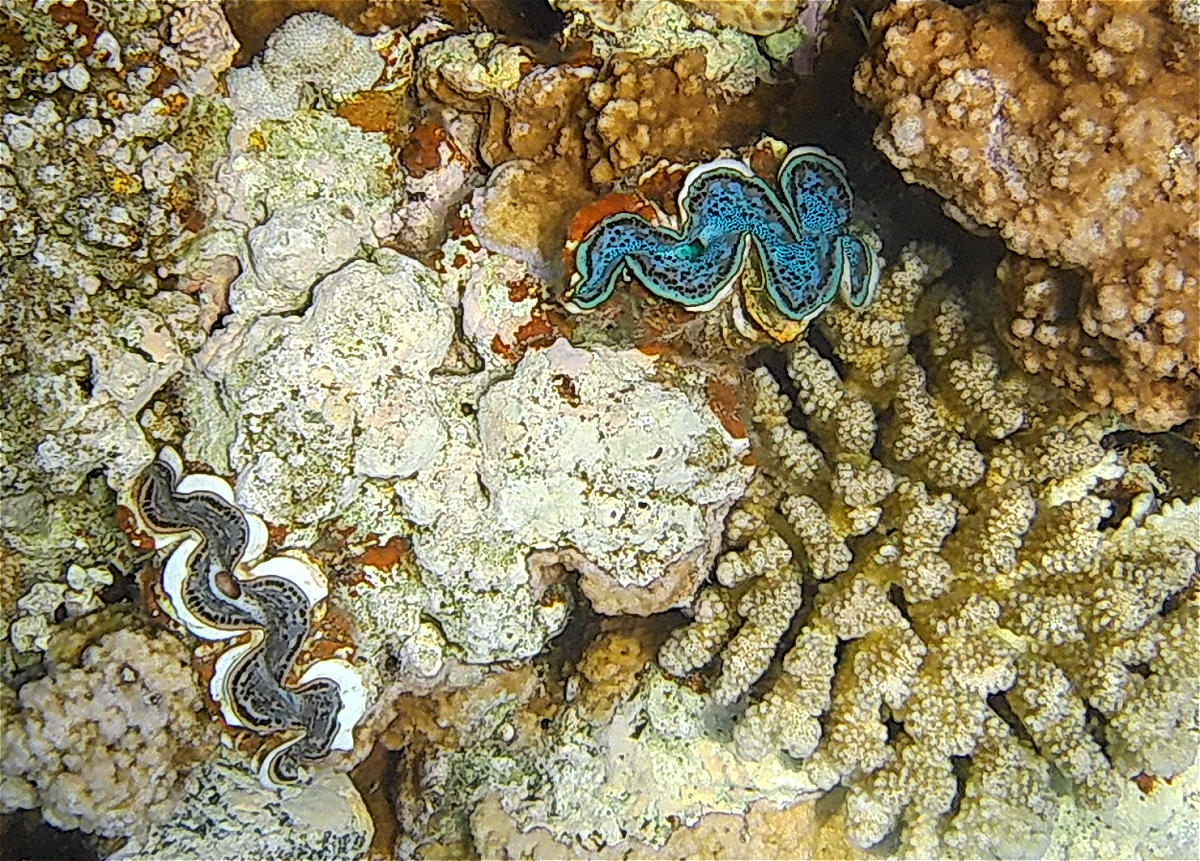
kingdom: Animalia
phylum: Mollusca
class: Bivalvia
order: Cardiida
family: Cardiidae
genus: Tridacna
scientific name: Tridacna maxima
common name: Small giant clam
